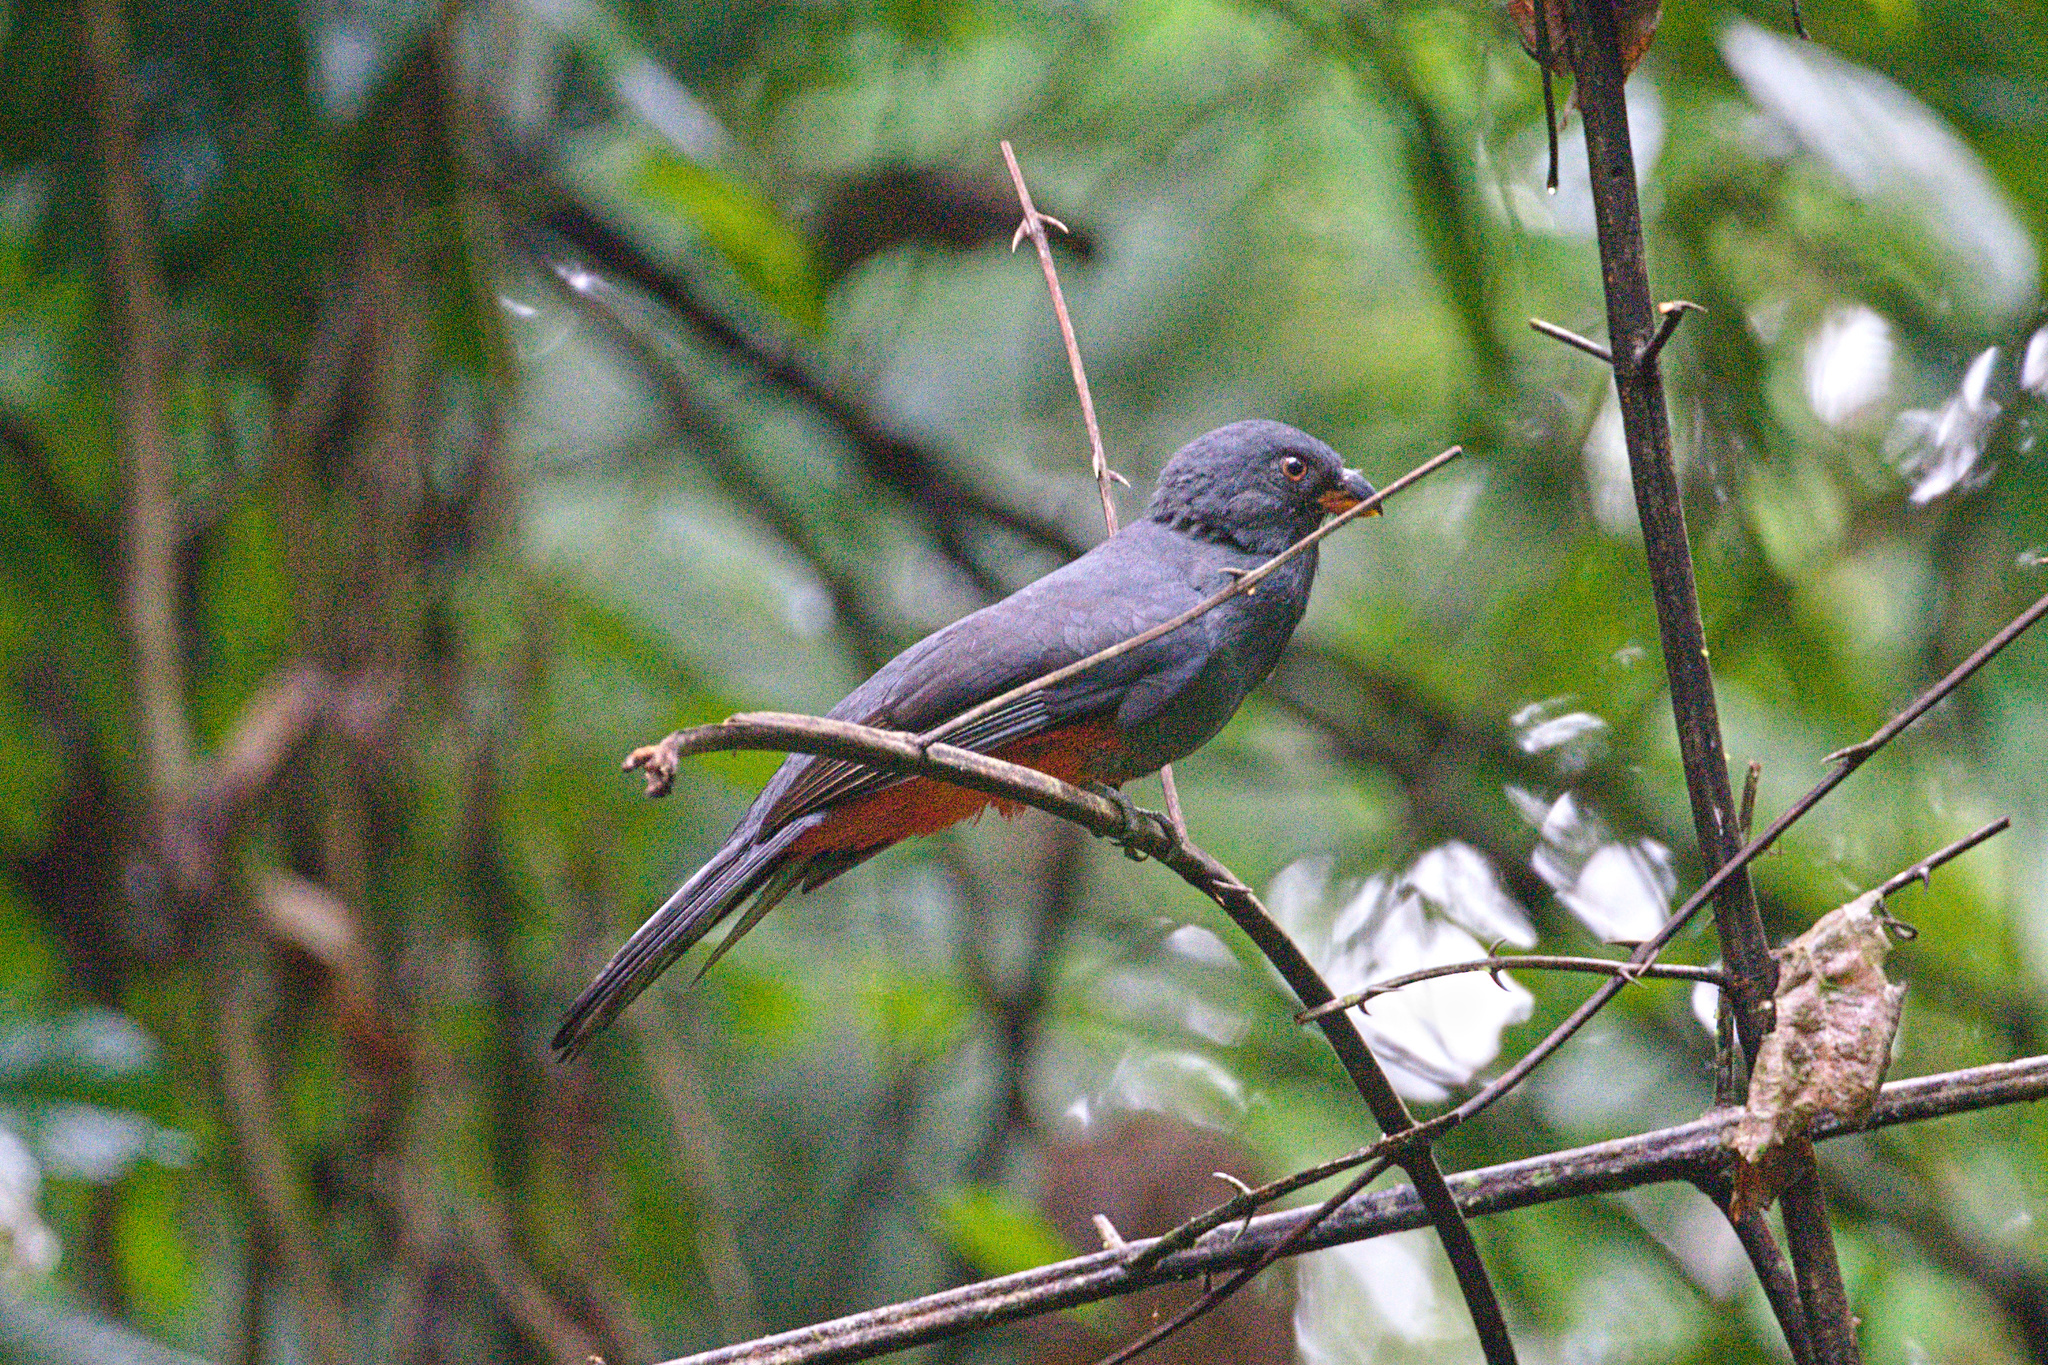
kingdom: Animalia
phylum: Chordata
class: Aves
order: Trogoniformes
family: Trogonidae
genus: Trogon
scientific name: Trogon massena
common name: Slaty-tailed trogon
